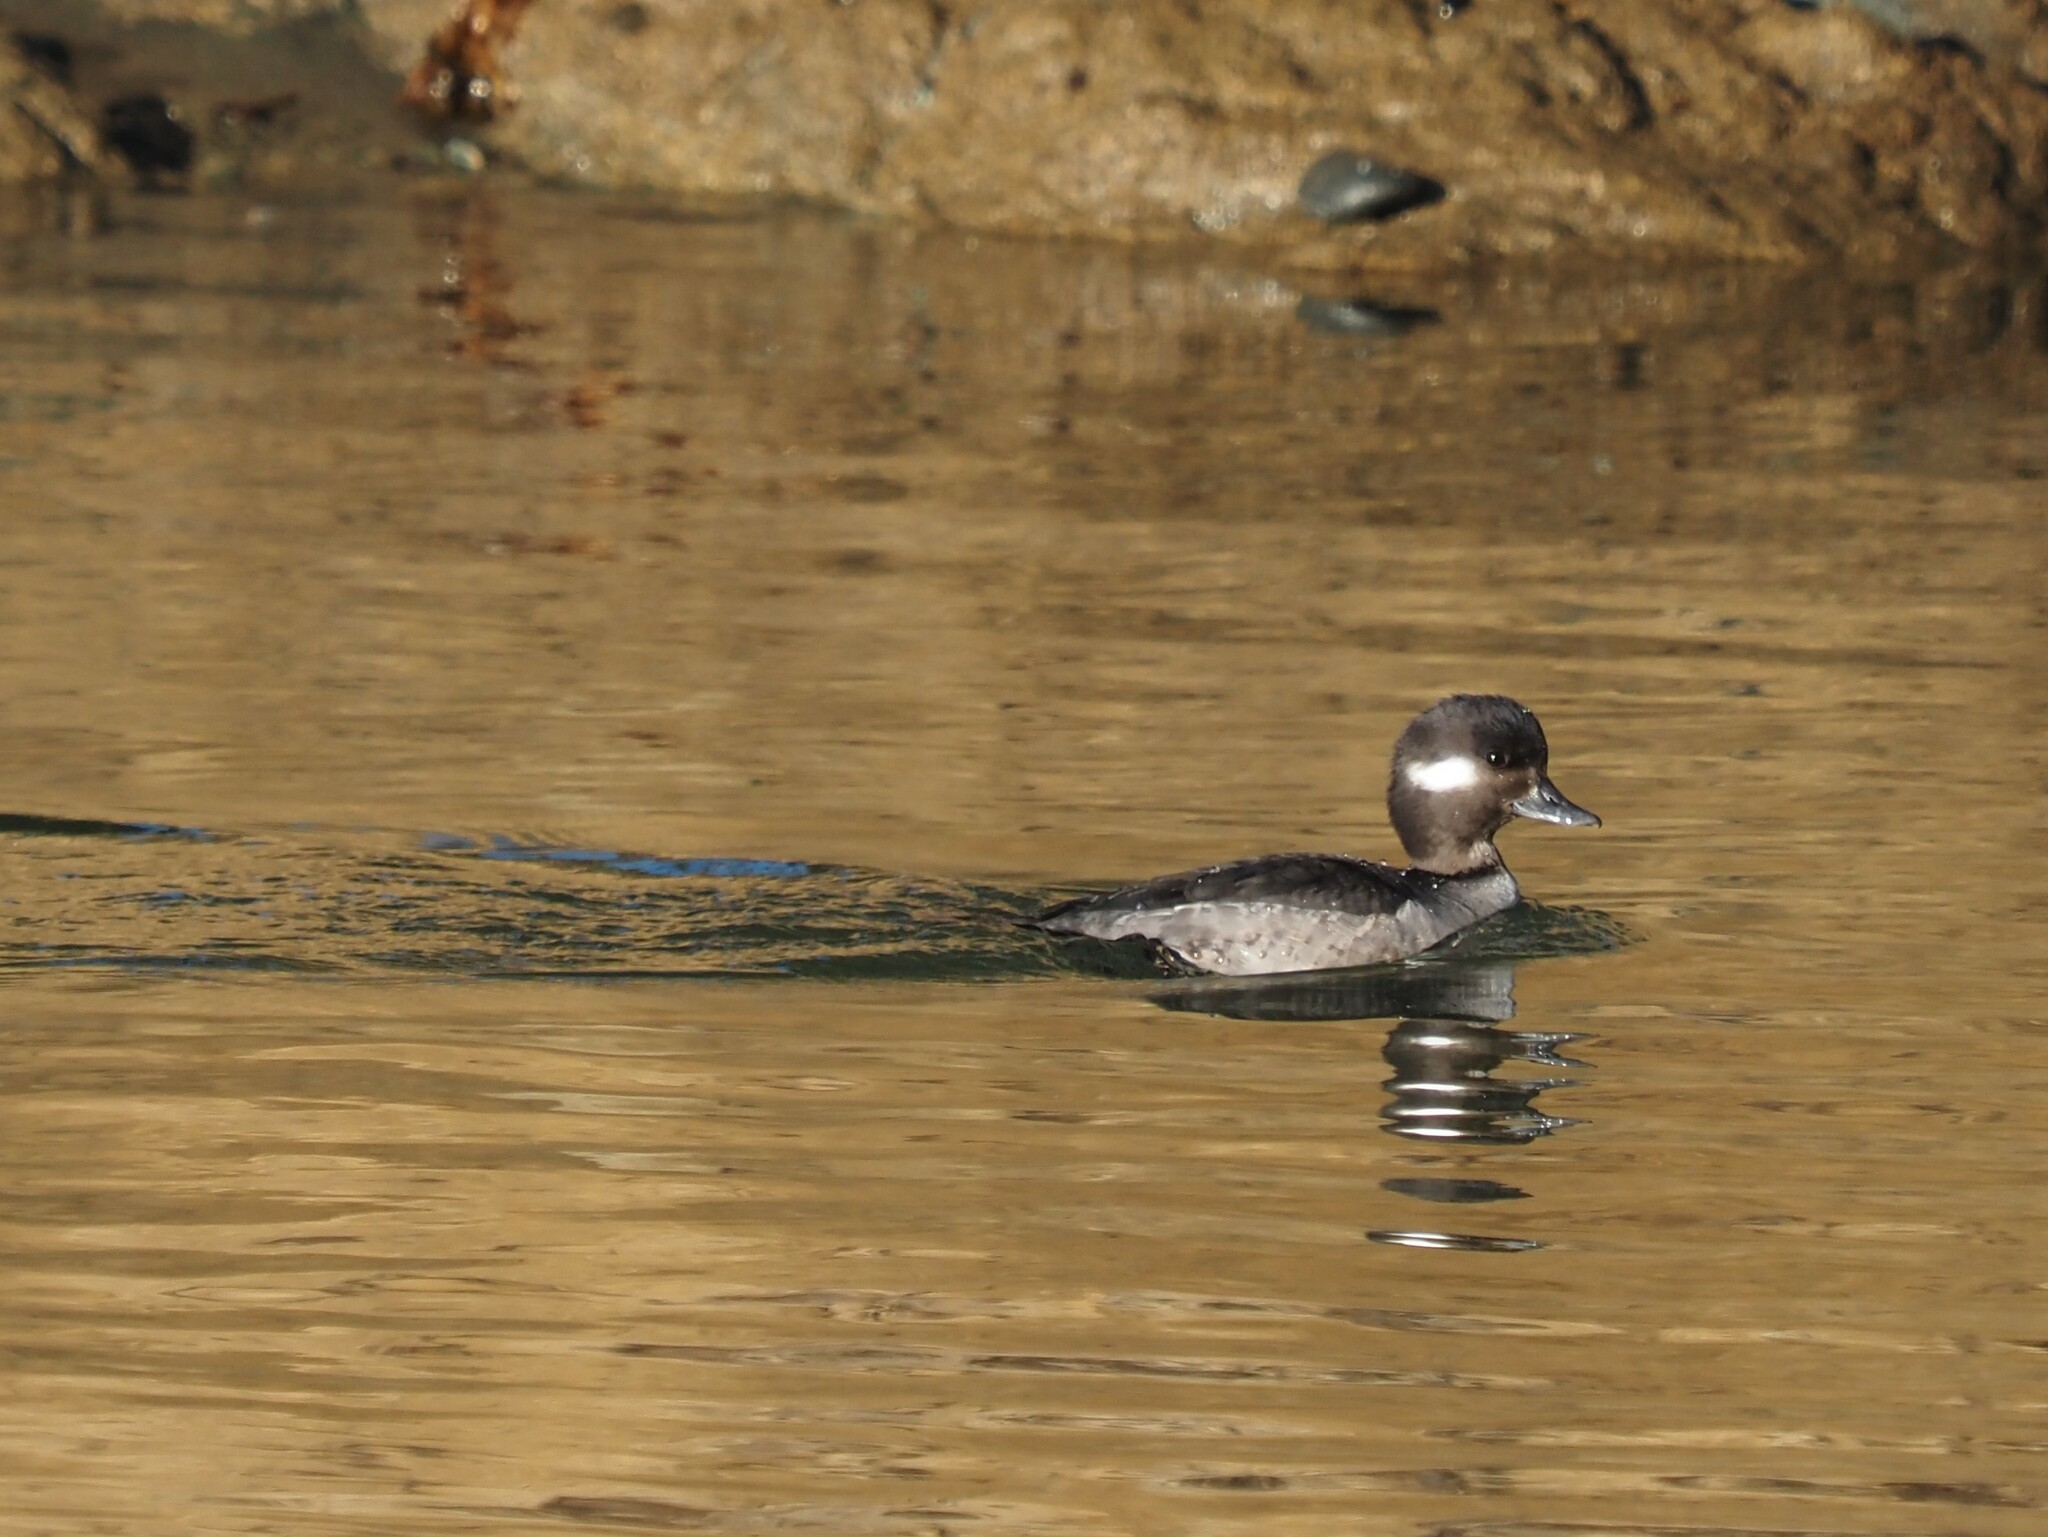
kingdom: Animalia
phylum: Chordata
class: Aves
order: Anseriformes
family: Anatidae
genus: Bucephala
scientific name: Bucephala albeola
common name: Bufflehead
